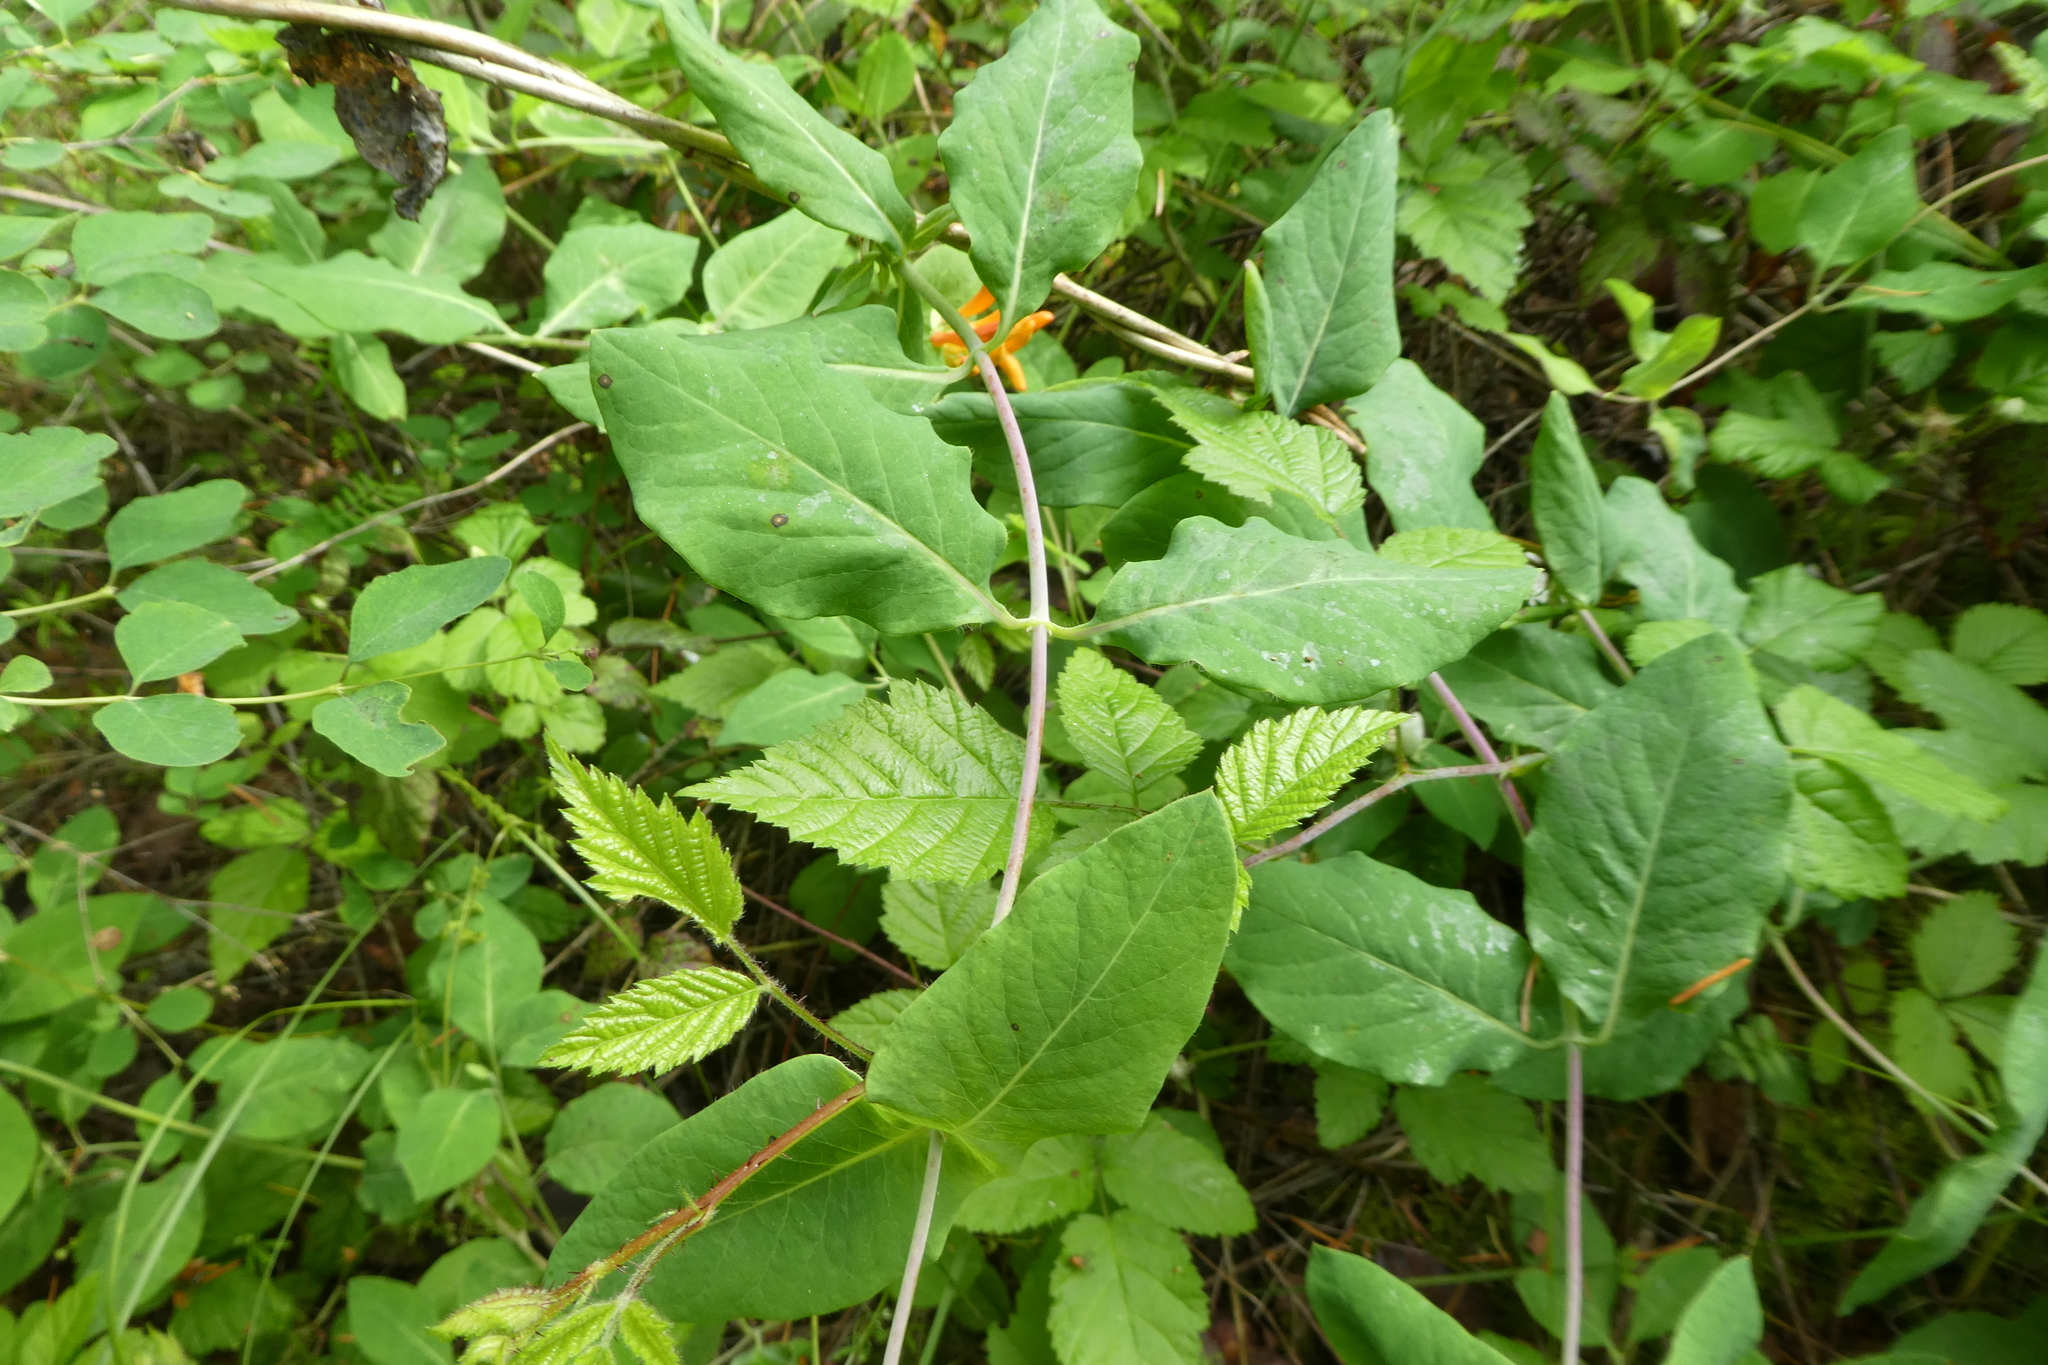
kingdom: Plantae
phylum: Tracheophyta
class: Magnoliopsida
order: Dipsacales
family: Caprifoliaceae
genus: Lonicera
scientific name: Lonicera ciliosa
